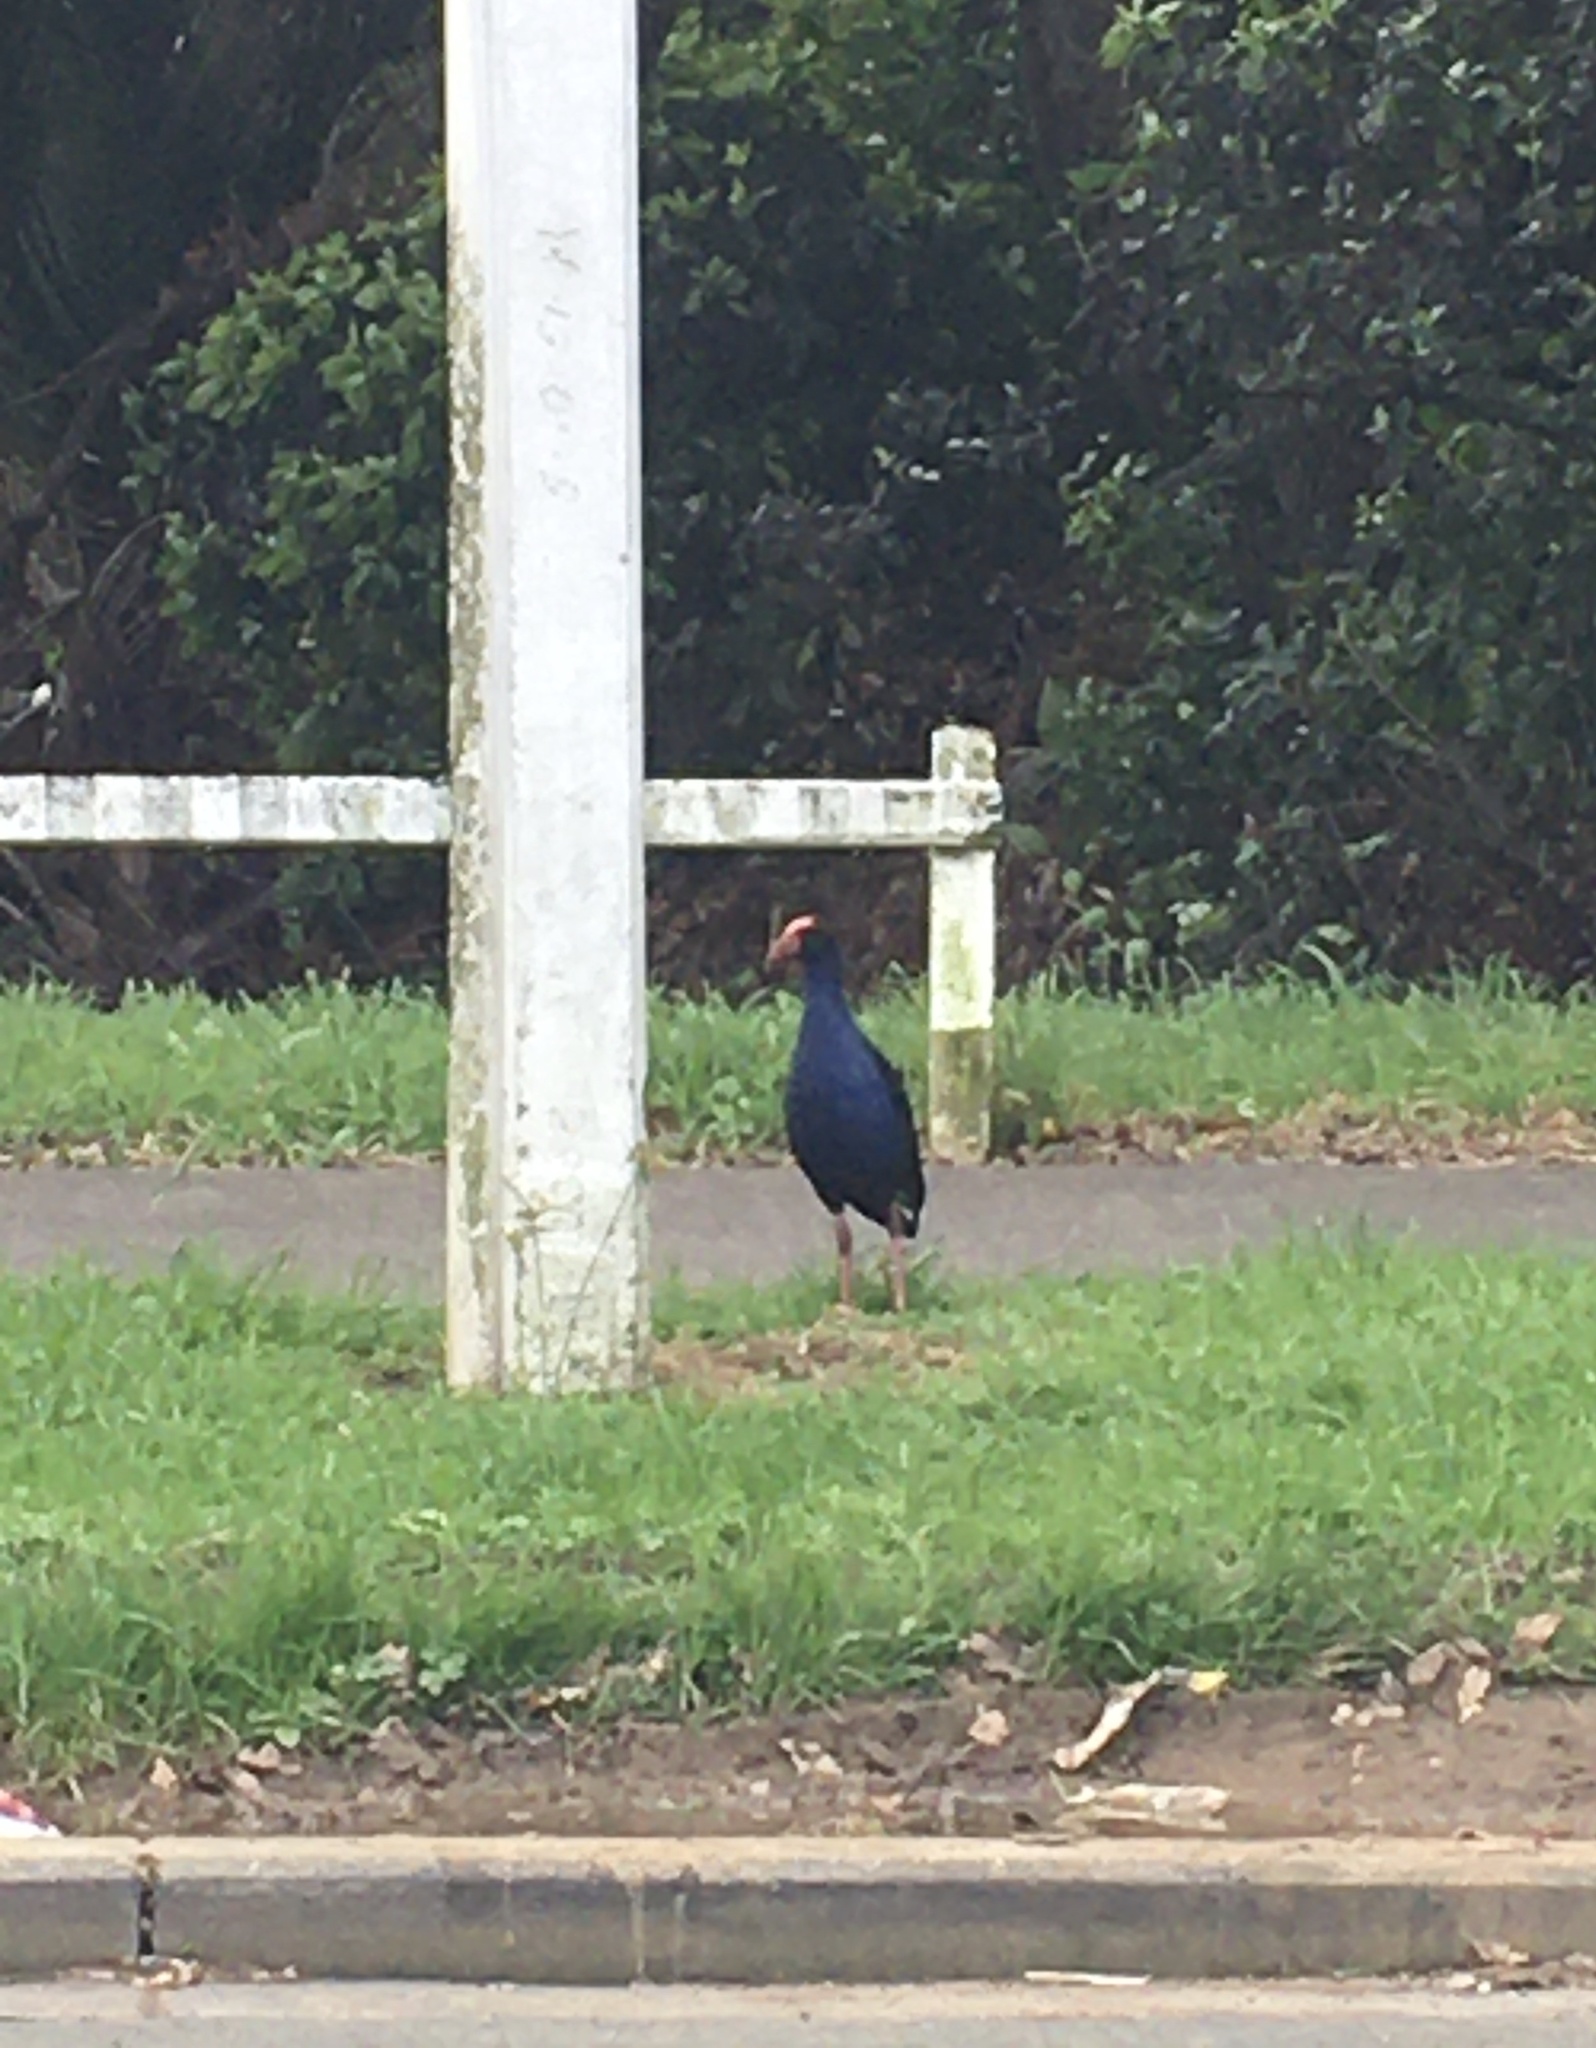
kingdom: Animalia
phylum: Chordata
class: Aves
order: Gruiformes
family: Rallidae
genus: Porphyrio
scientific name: Porphyrio melanotus
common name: Australasian swamphen
